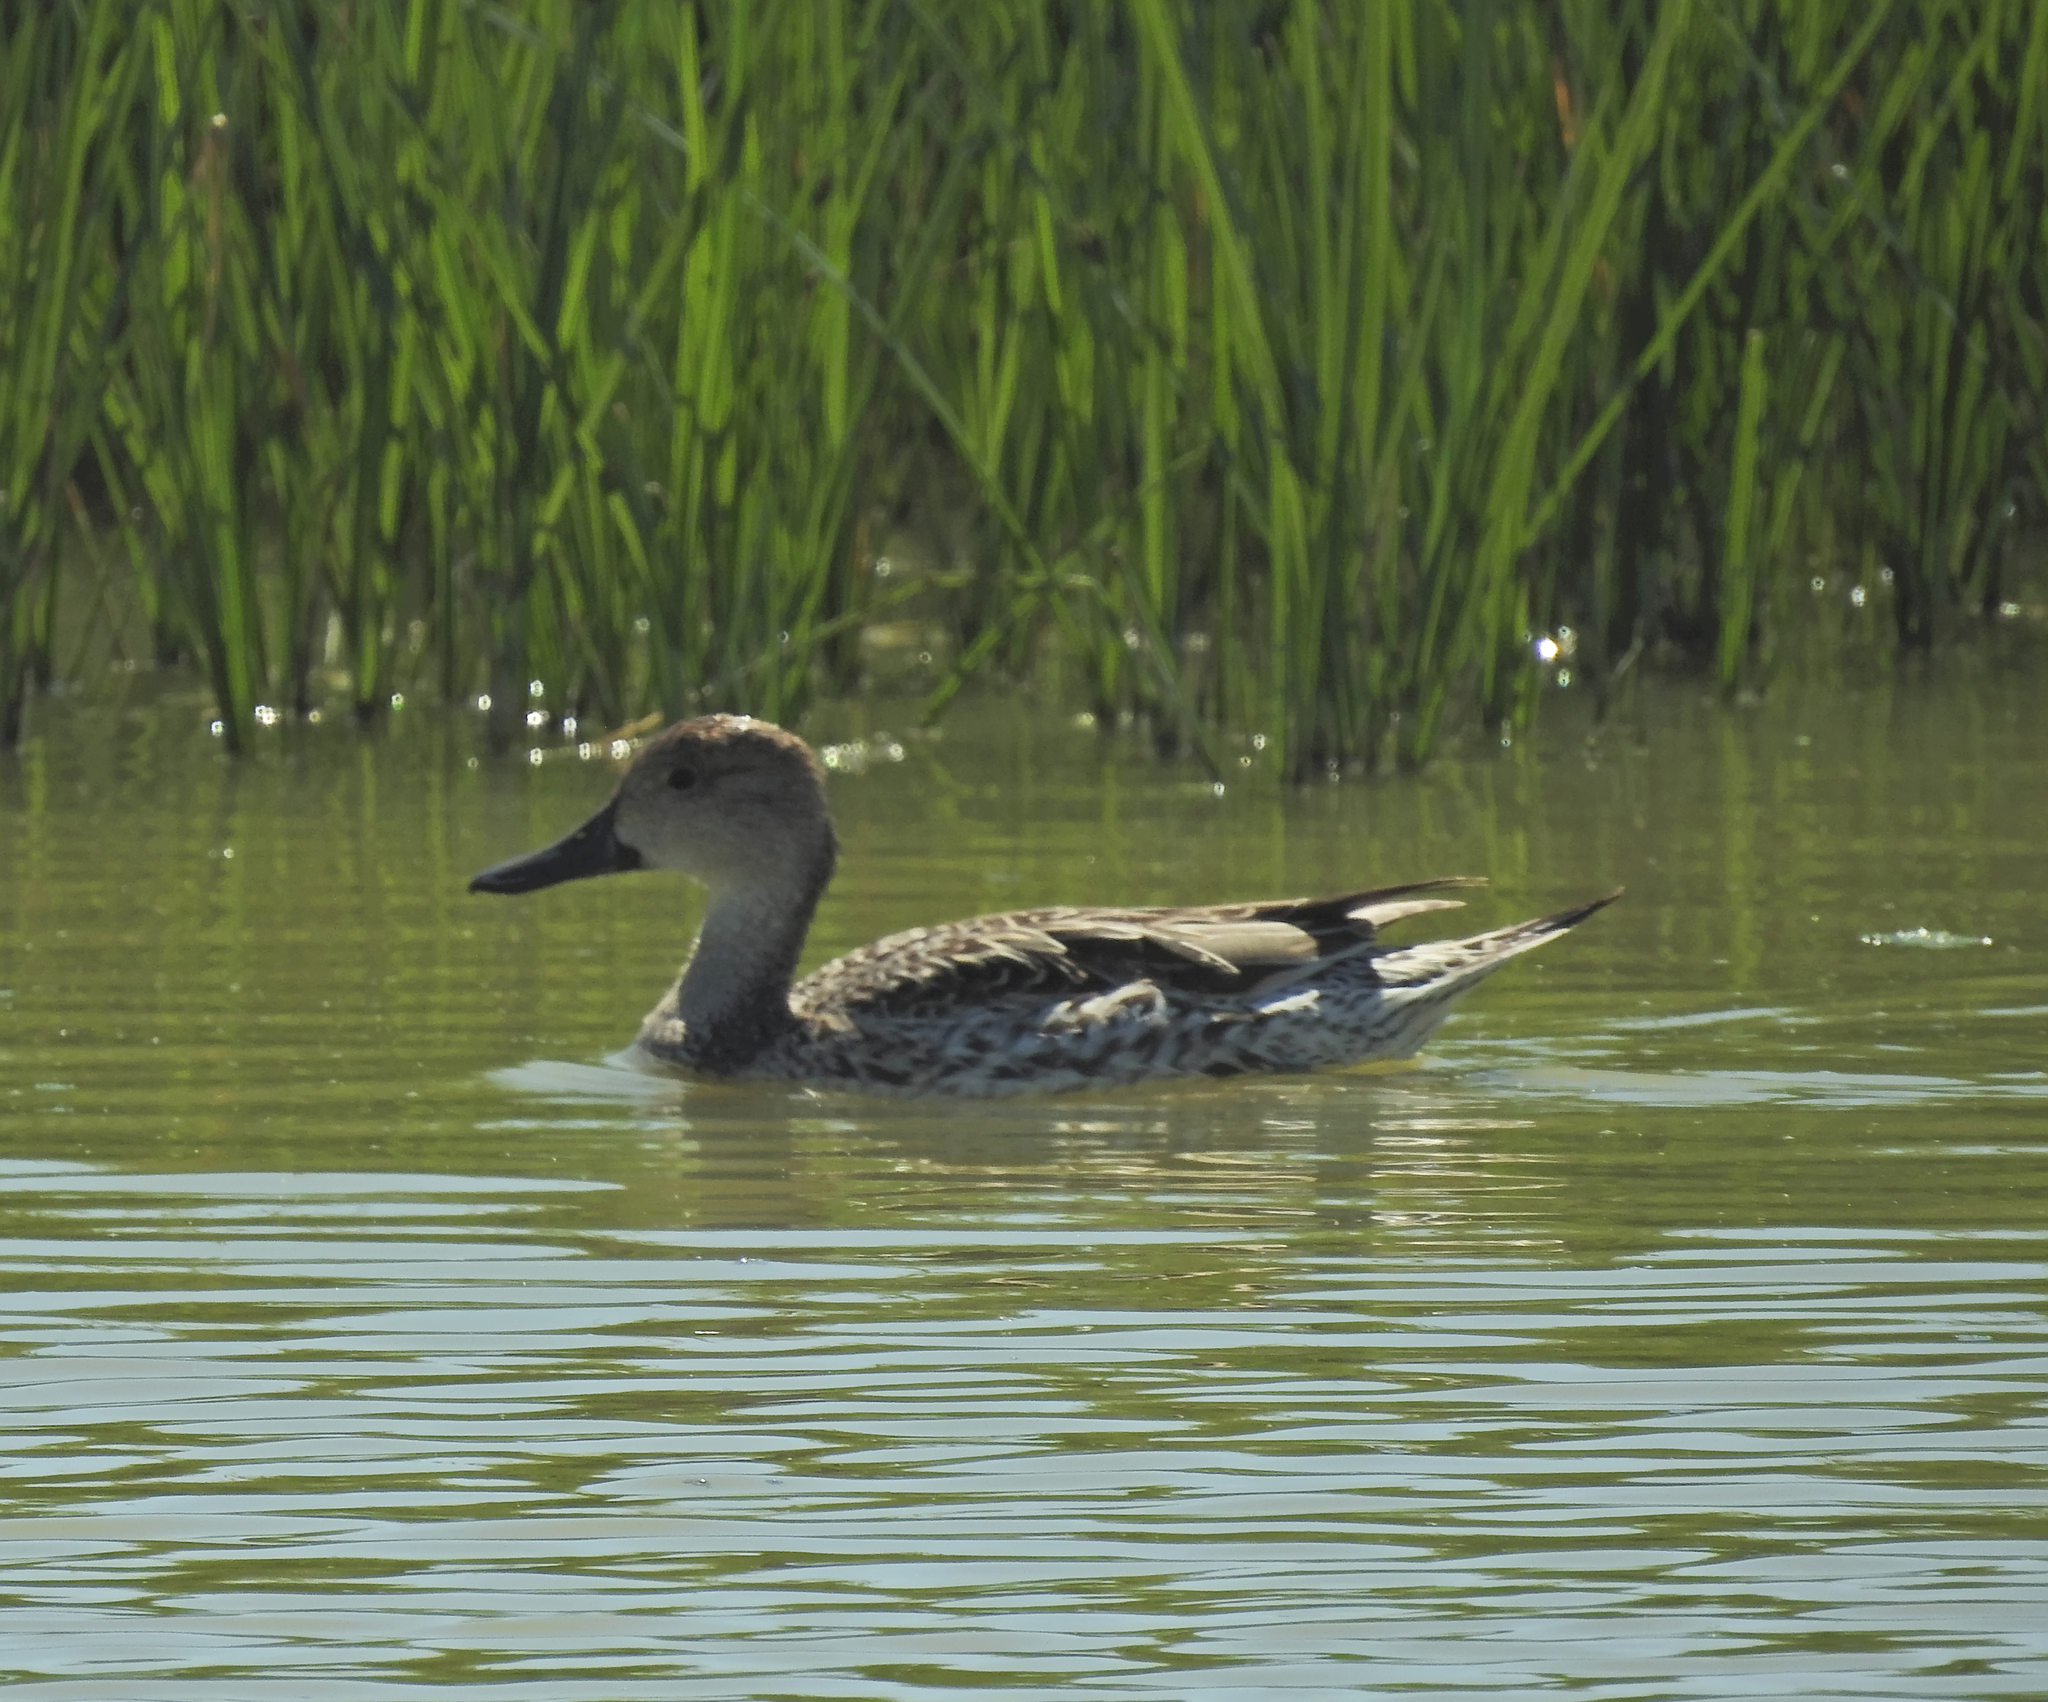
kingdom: Animalia
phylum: Chordata
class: Aves
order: Anseriformes
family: Anatidae
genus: Anas
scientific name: Anas acuta
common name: Northern pintail
